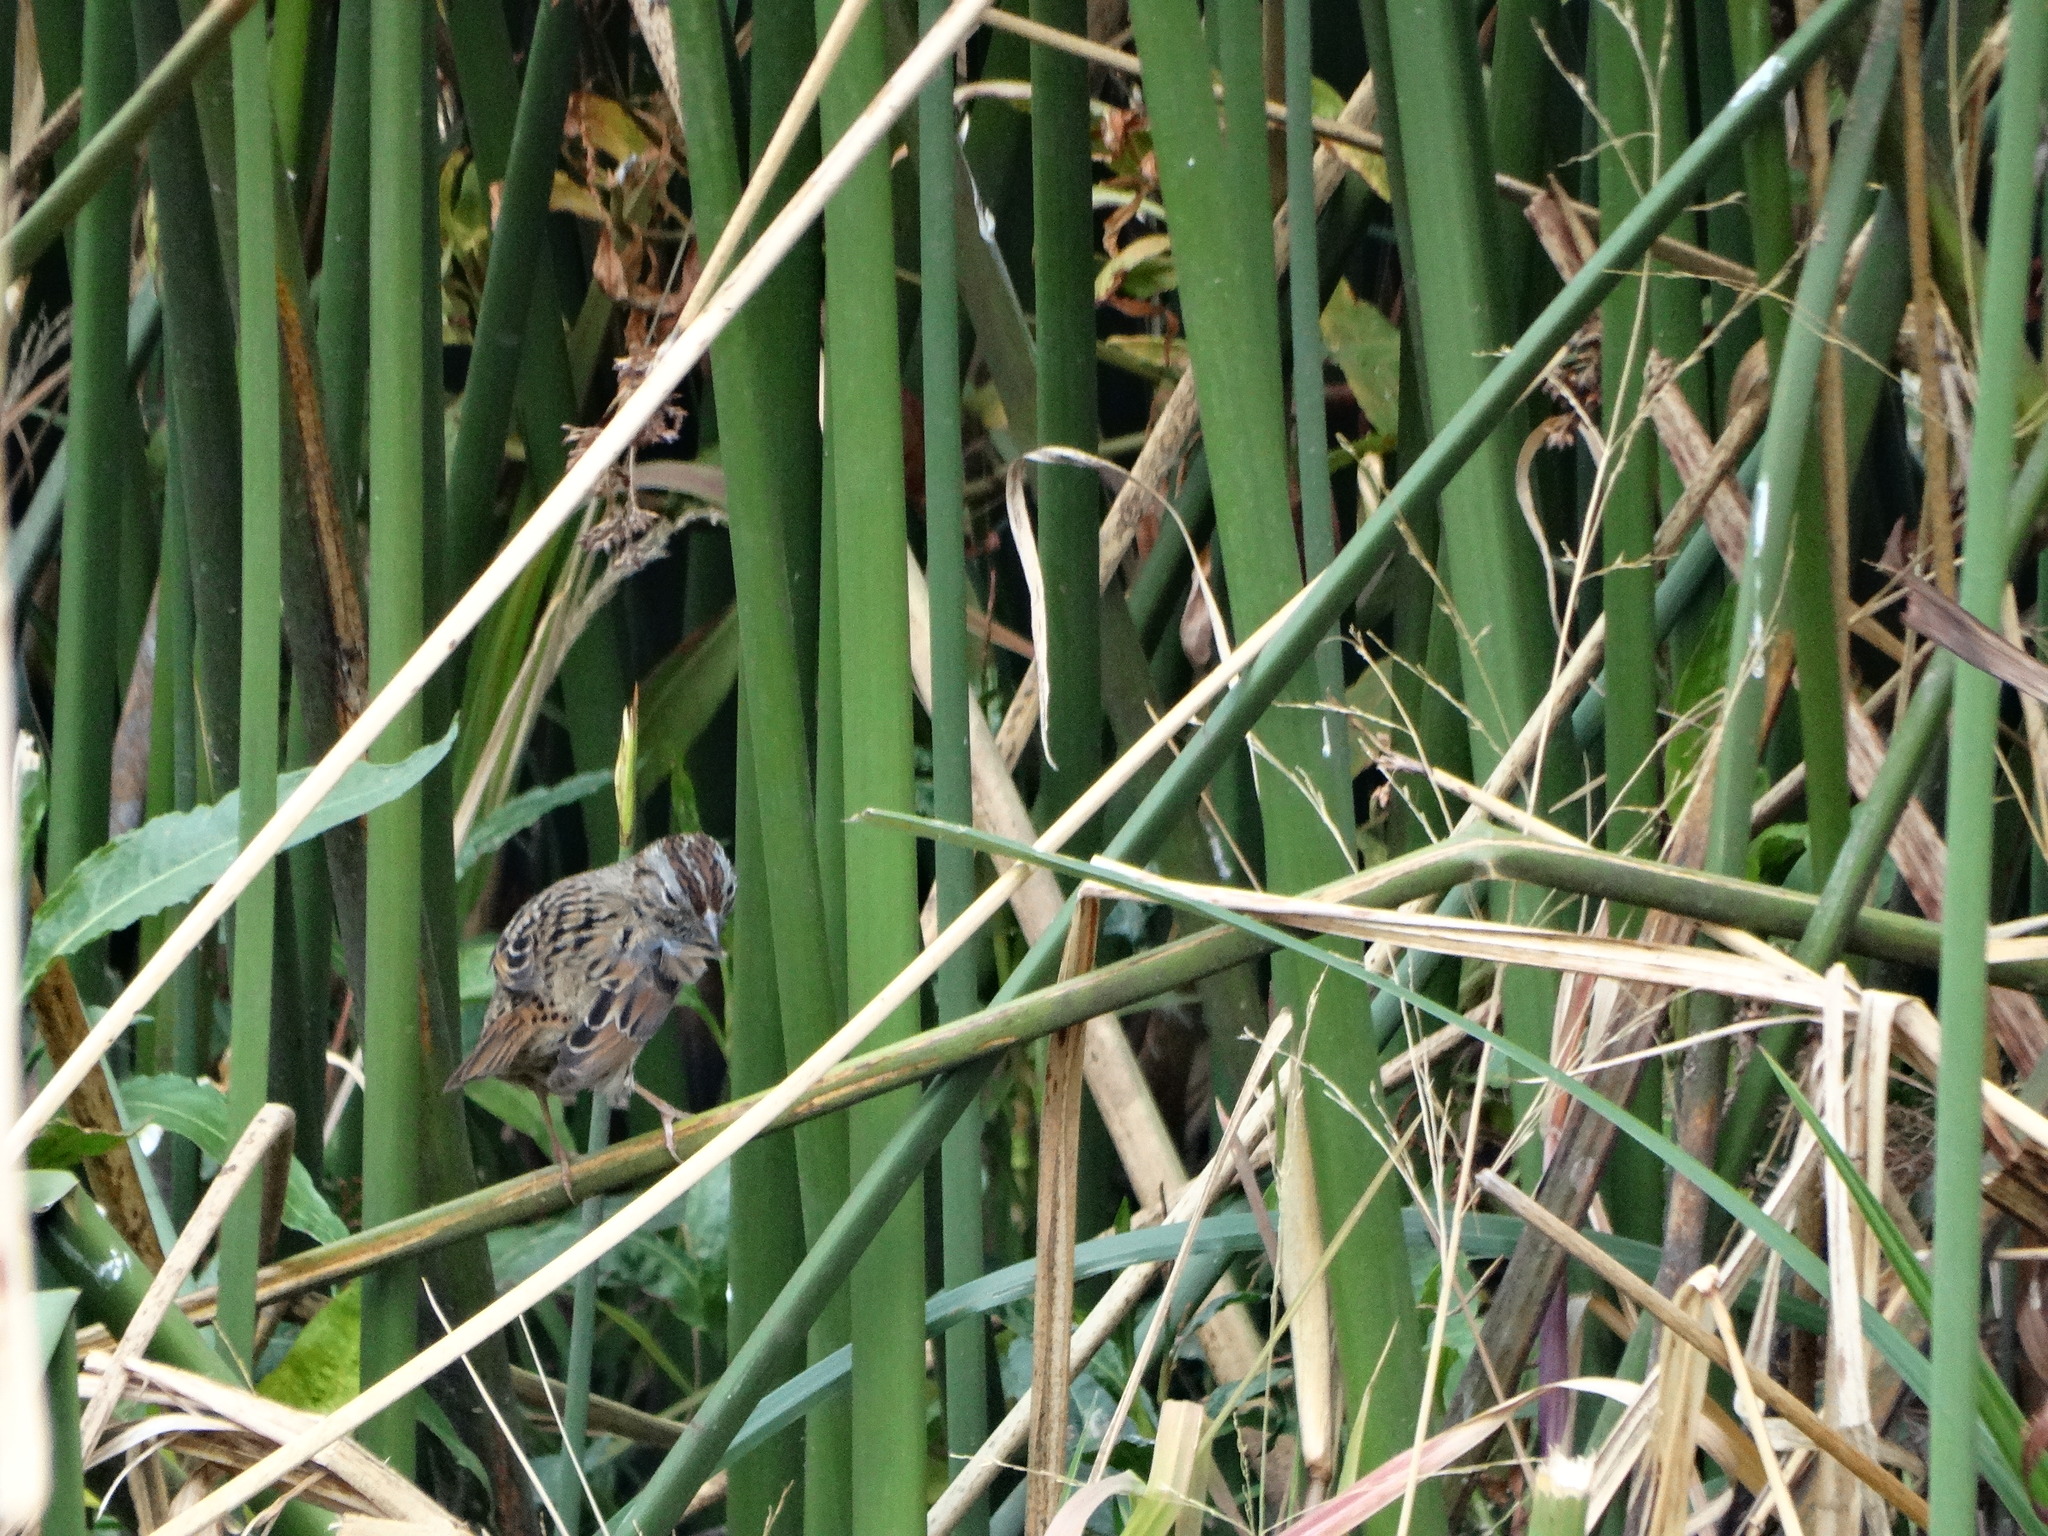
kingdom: Animalia
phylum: Chordata
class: Aves
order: Passeriformes
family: Passerellidae
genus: Melospiza
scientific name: Melospiza lincolnii
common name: Lincoln's sparrow
